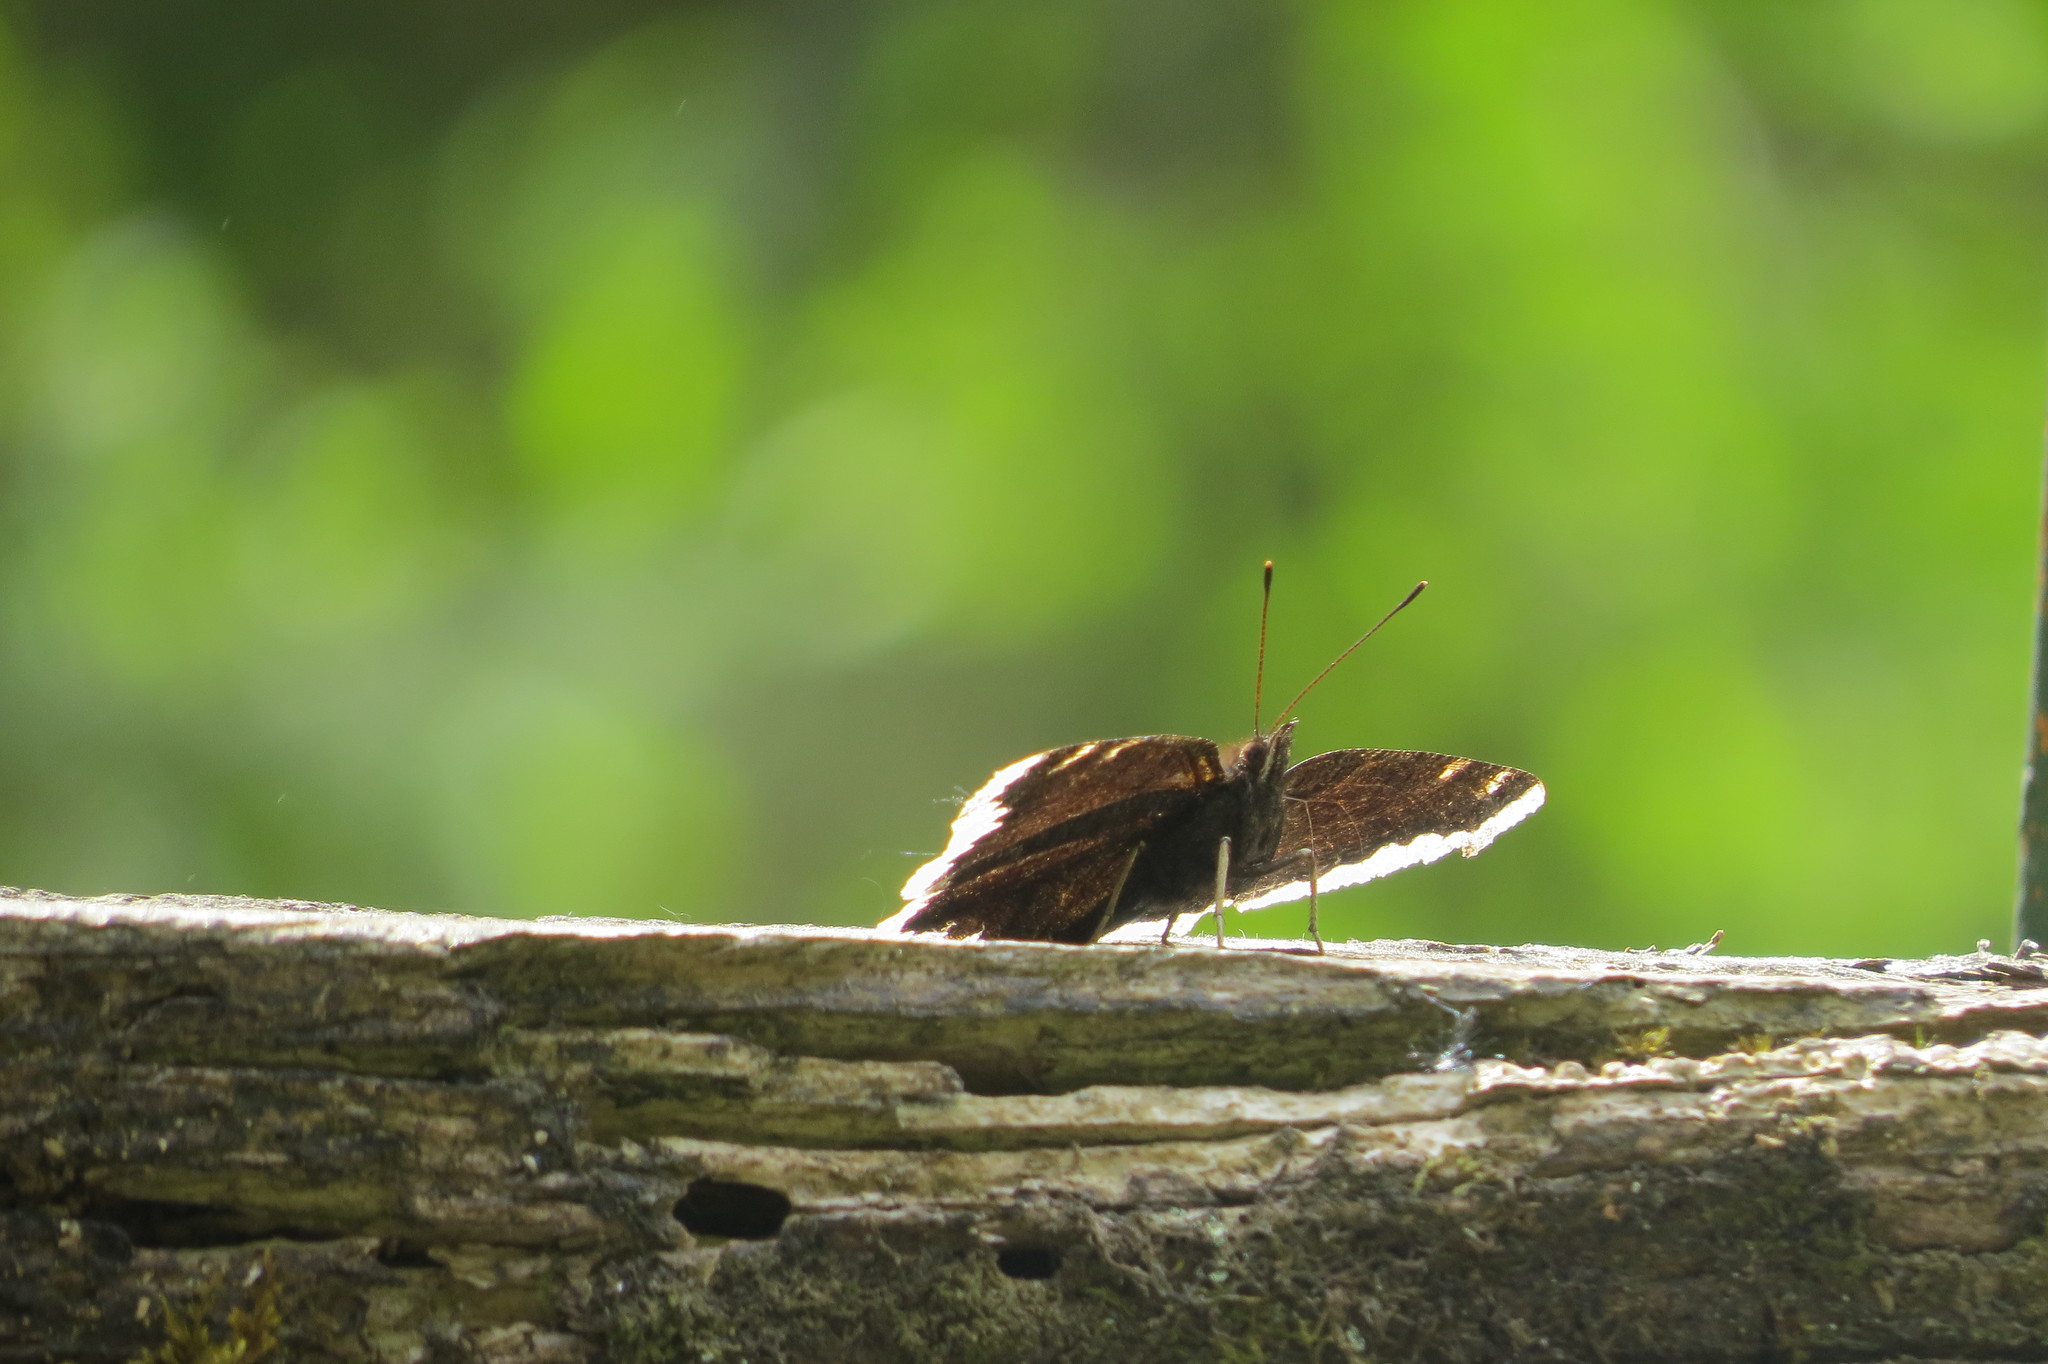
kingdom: Animalia
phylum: Arthropoda
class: Insecta
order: Lepidoptera
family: Nymphalidae
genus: Nymphalis
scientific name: Nymphalis antiopa
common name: Camberwell beauty
